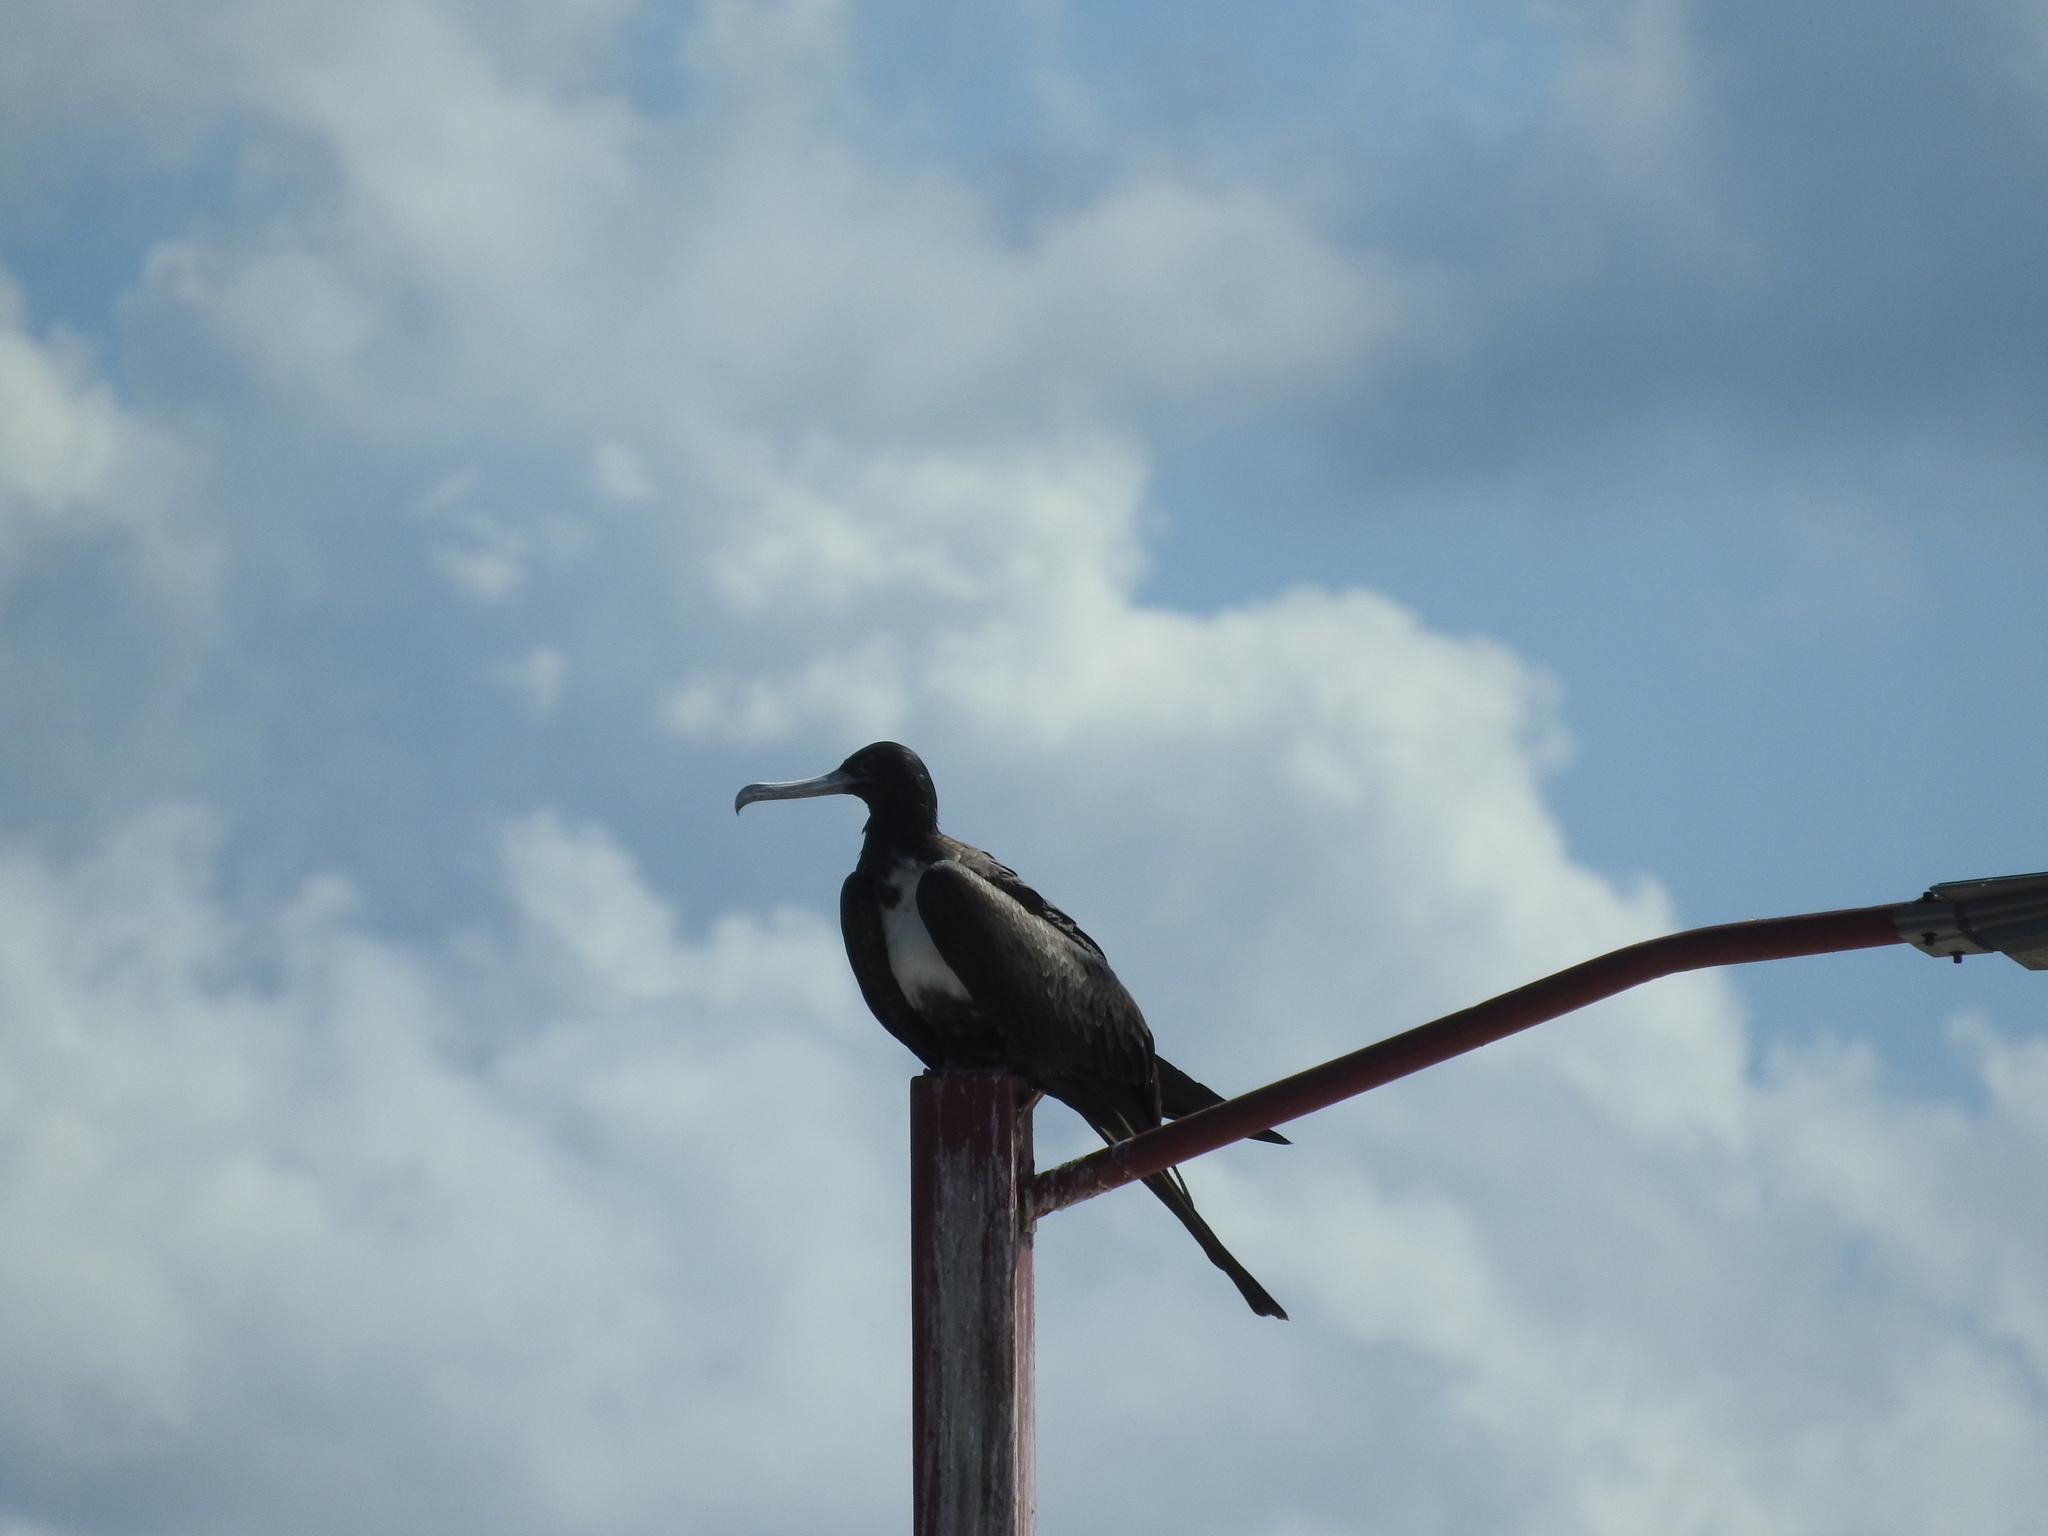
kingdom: Animalia
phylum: Chordata
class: Aves
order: Suliformes
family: Fregatidae
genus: Fregata
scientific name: Fregata magnificens
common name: Magnificent frigatebird
